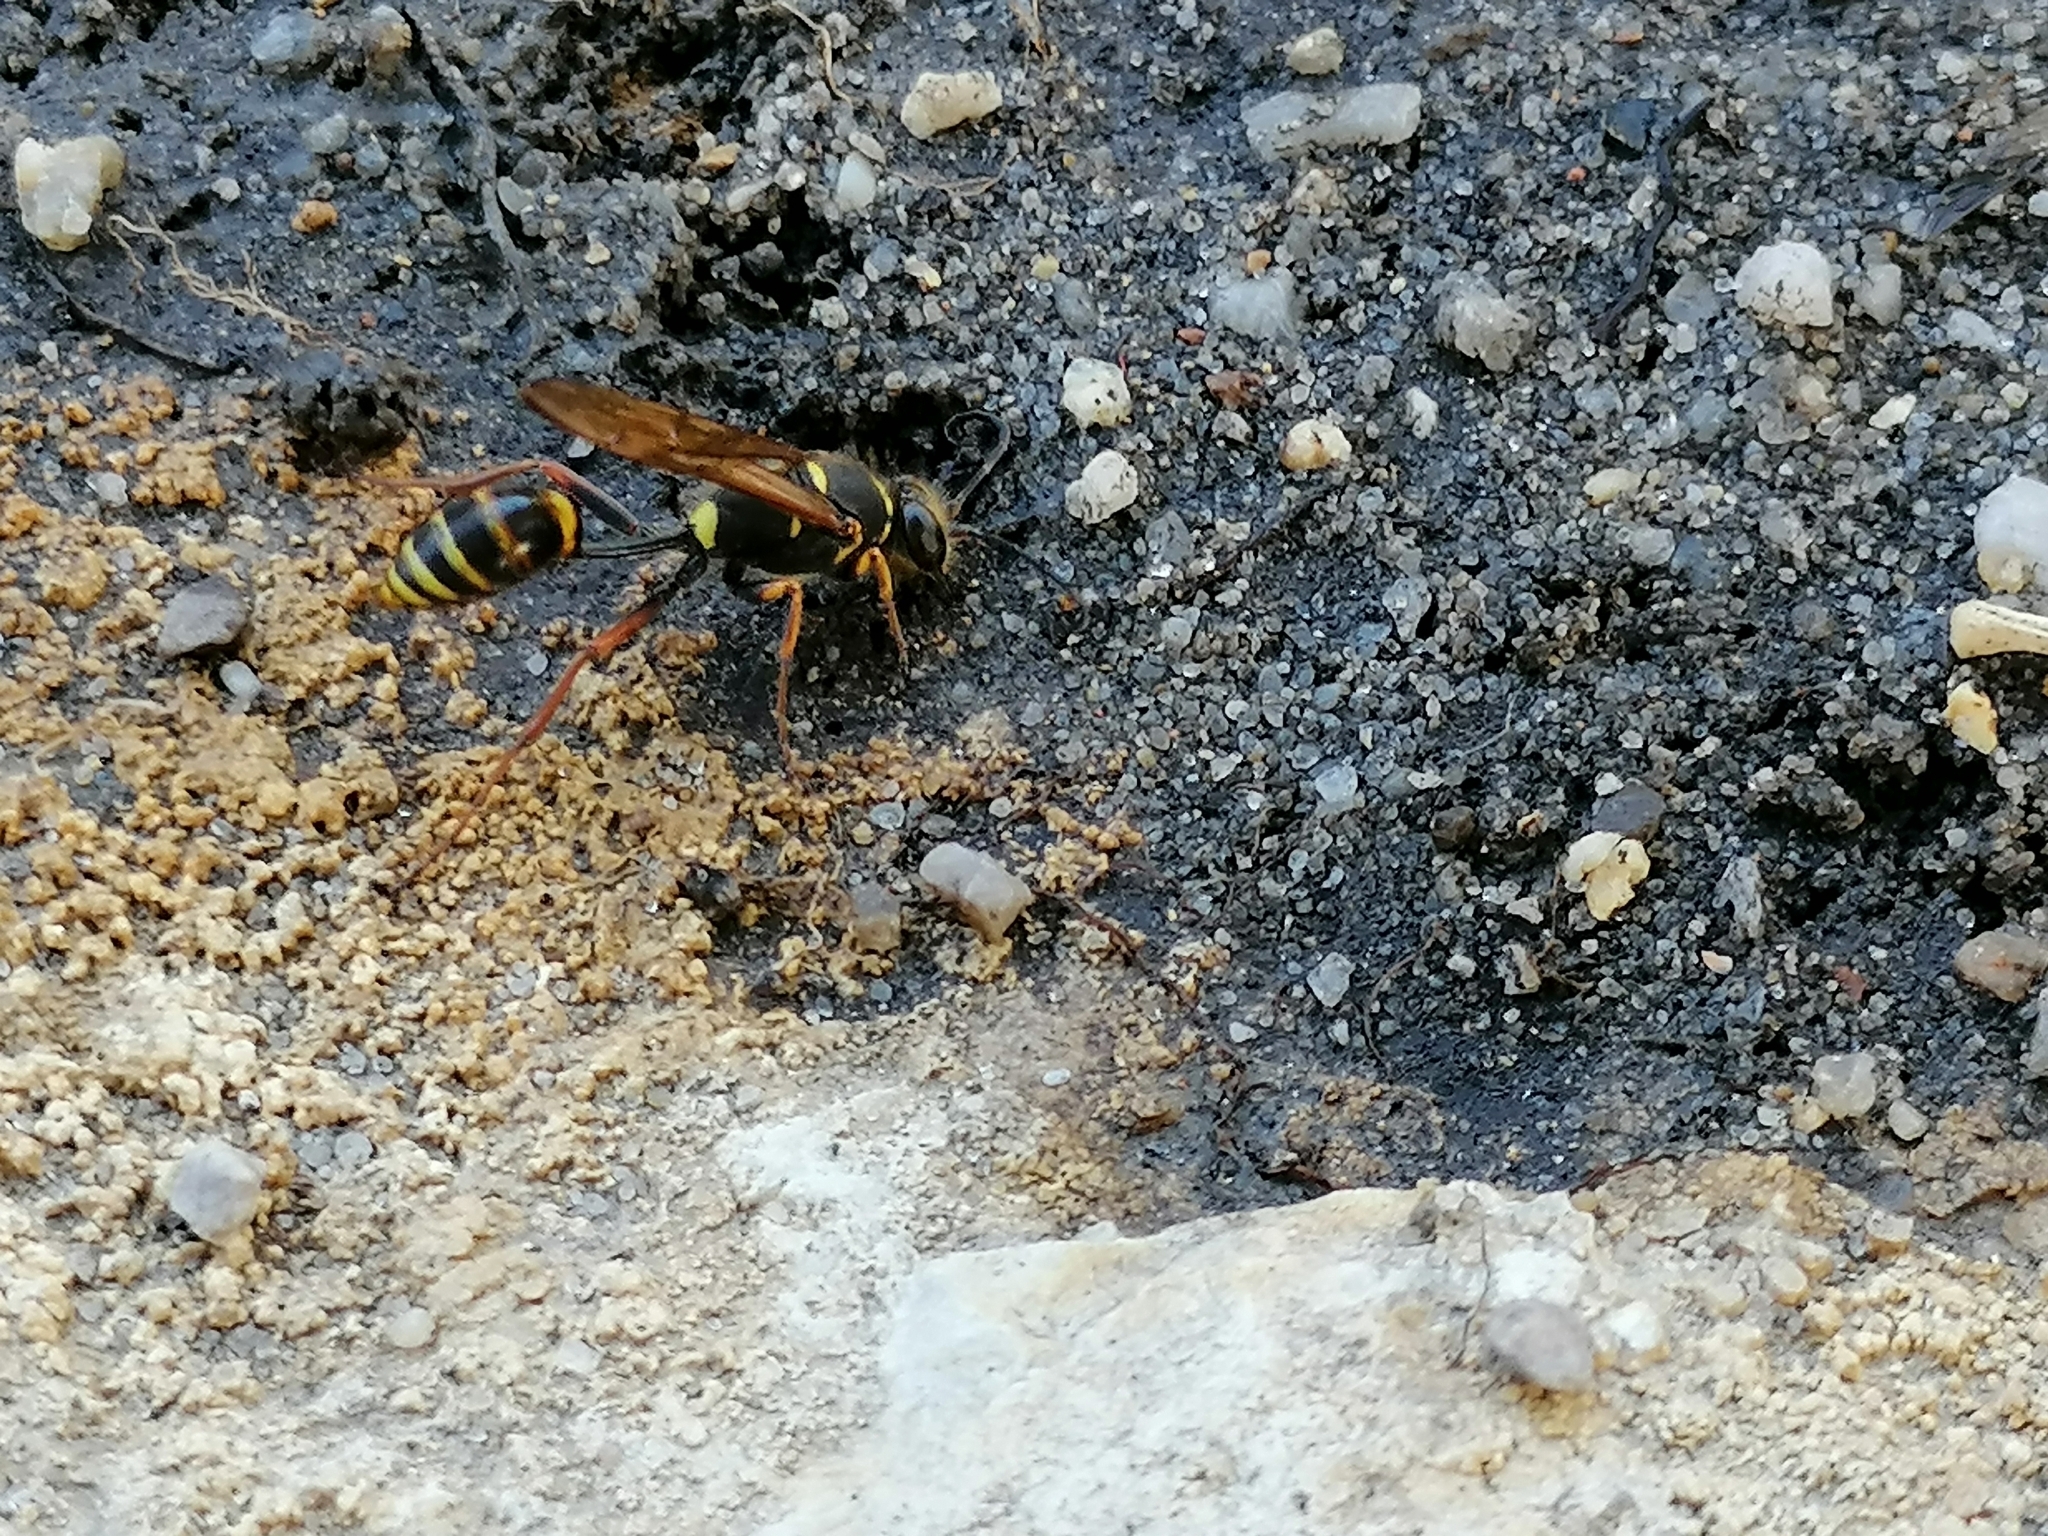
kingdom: Animalia
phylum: Arthropoda
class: Insecta
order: Hymenoptera
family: Sphecidae
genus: Sceliphron
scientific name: Sceliphron curvatum
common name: Pèlopèe
